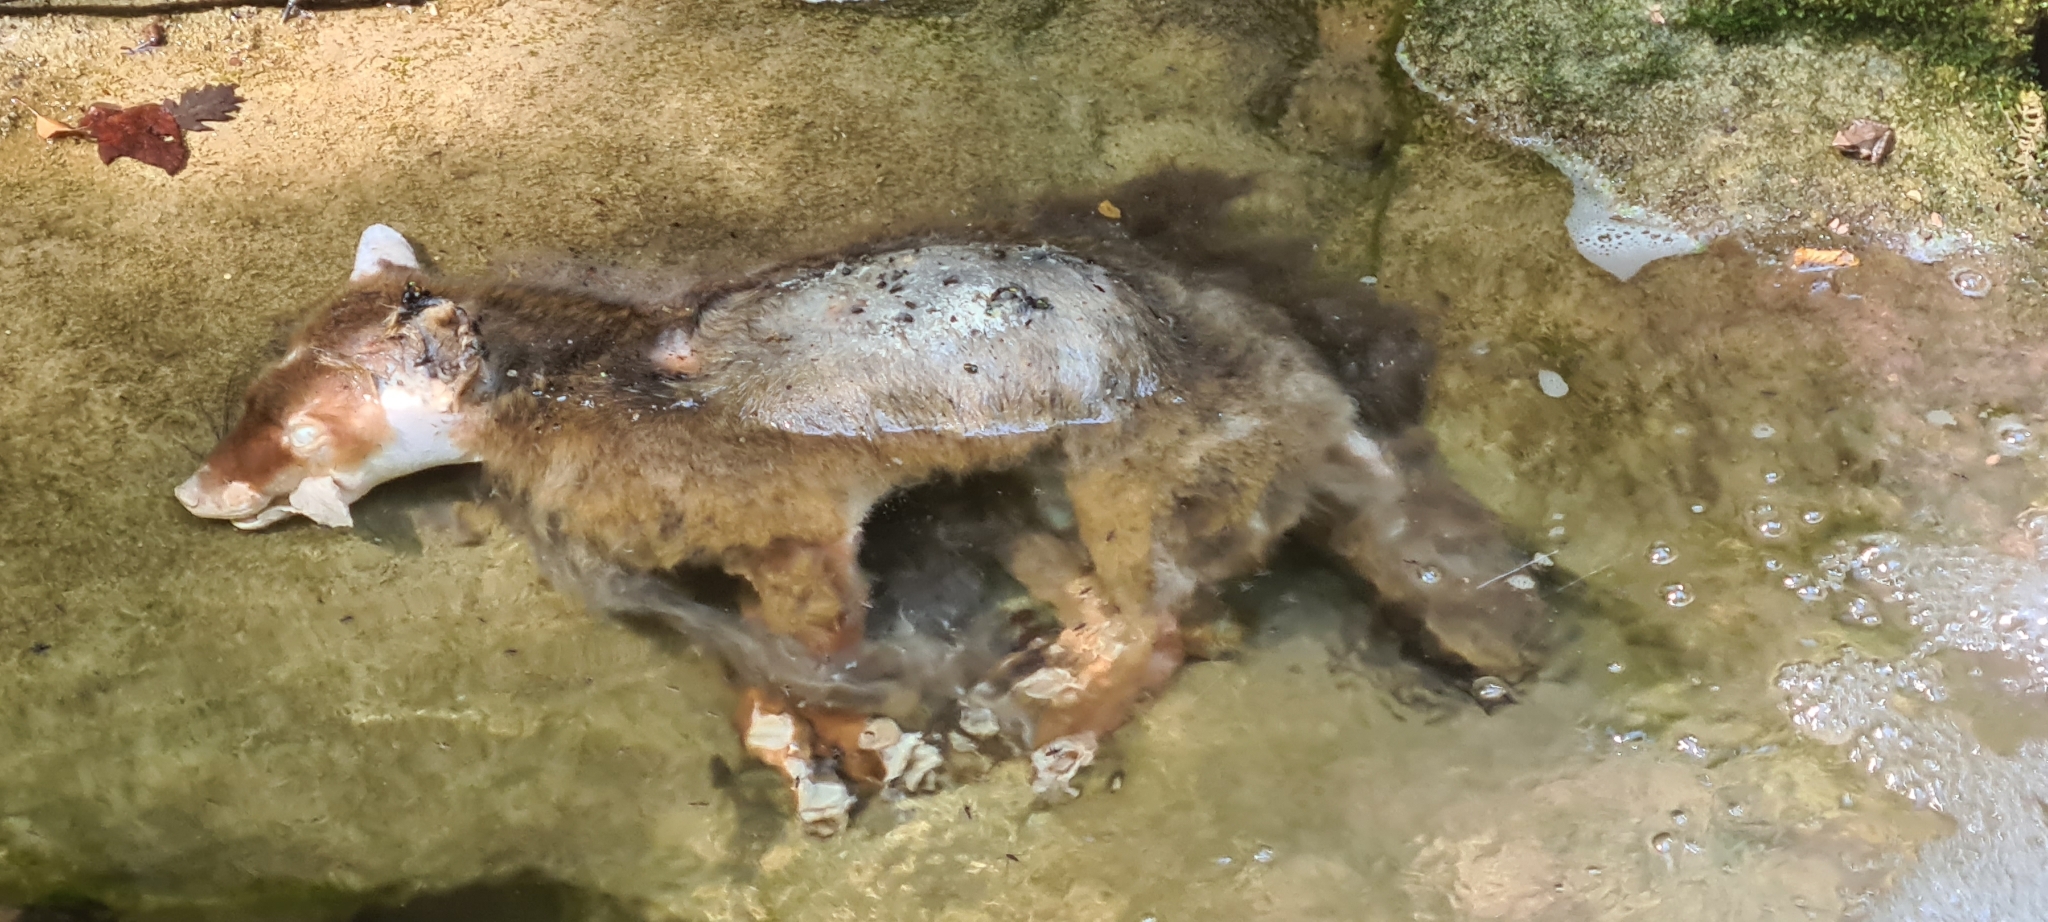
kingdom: Animalia
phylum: Chordata
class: Mammalia
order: Carnivora
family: Canidae
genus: Vulpes
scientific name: Vulpes vulpes
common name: Red fox
